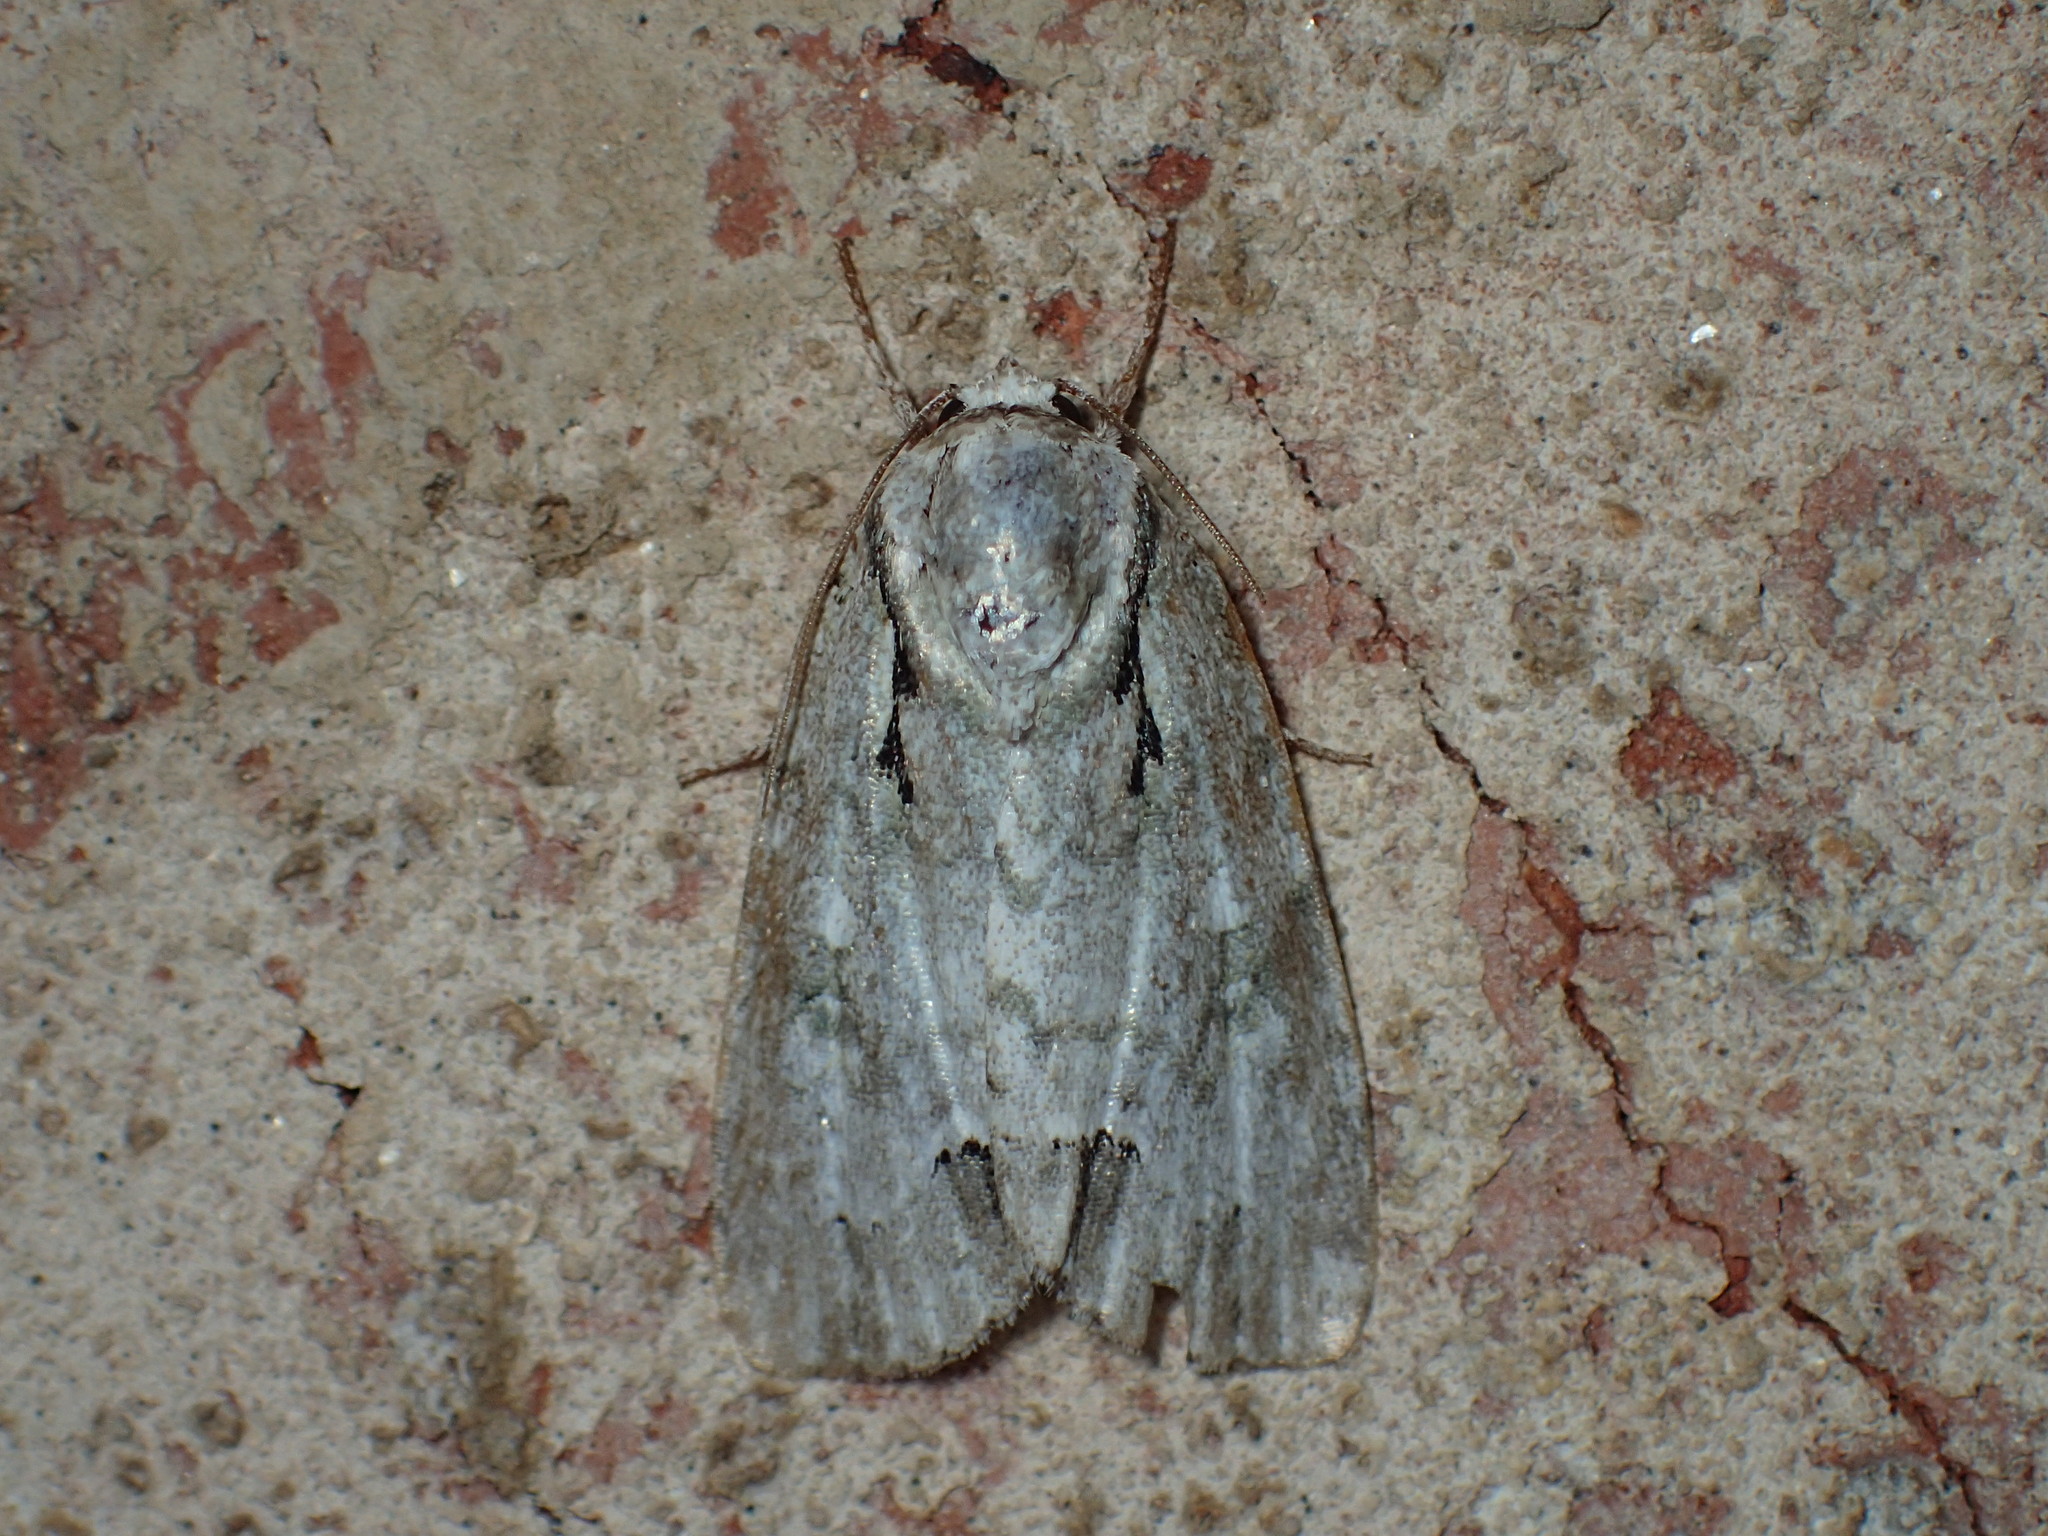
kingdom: Animalia
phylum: Arthropoda
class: Insecta
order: Lepidoptera
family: Noctuidae
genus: Acronicta
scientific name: Acronicta vinnula
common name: Delightful dagger
